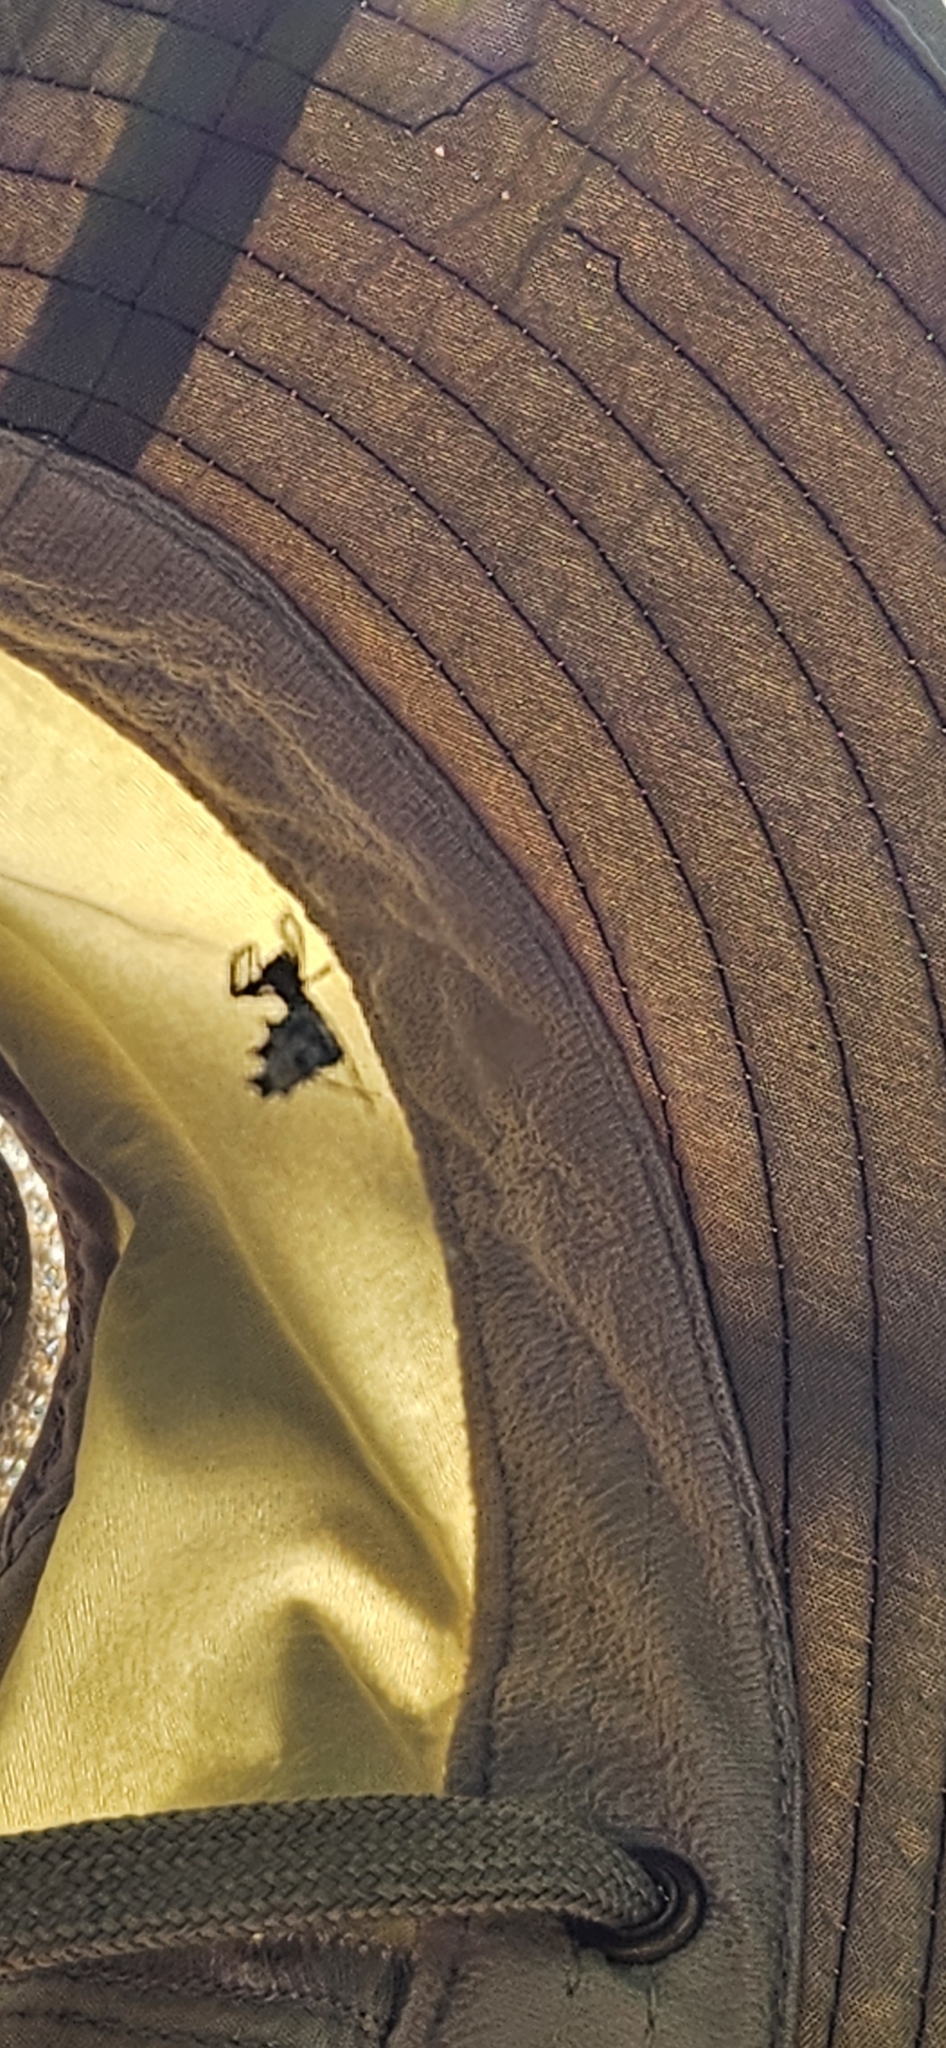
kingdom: Animalia
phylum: Arthropoda
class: Arachnida
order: Araneae
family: Araneidae
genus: Micrathena
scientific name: Micrathena gracilis
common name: Orb weavers
